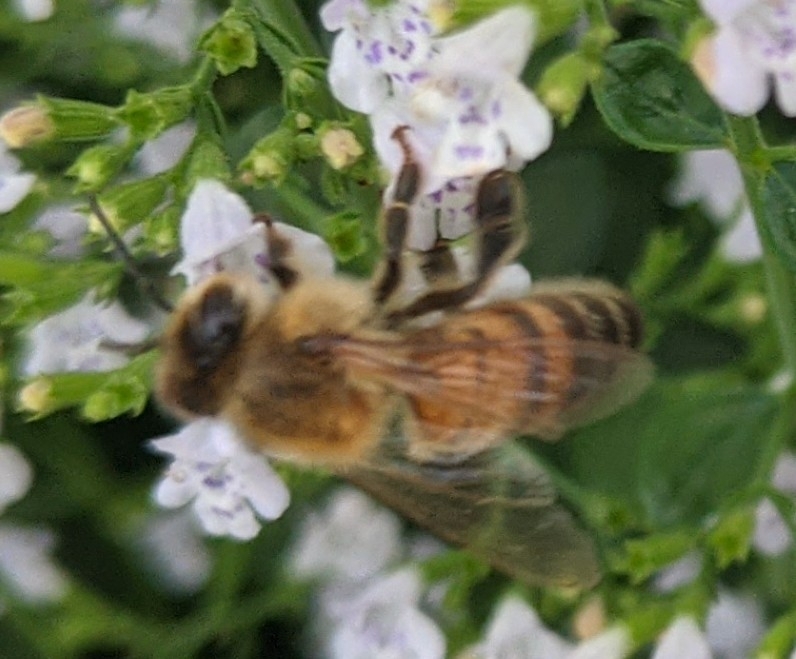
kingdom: Animalia
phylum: Arthropoda
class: Insecta
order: Hymenoptera
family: Apidae
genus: Apis
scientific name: Apis mellifera
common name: Honey bee
